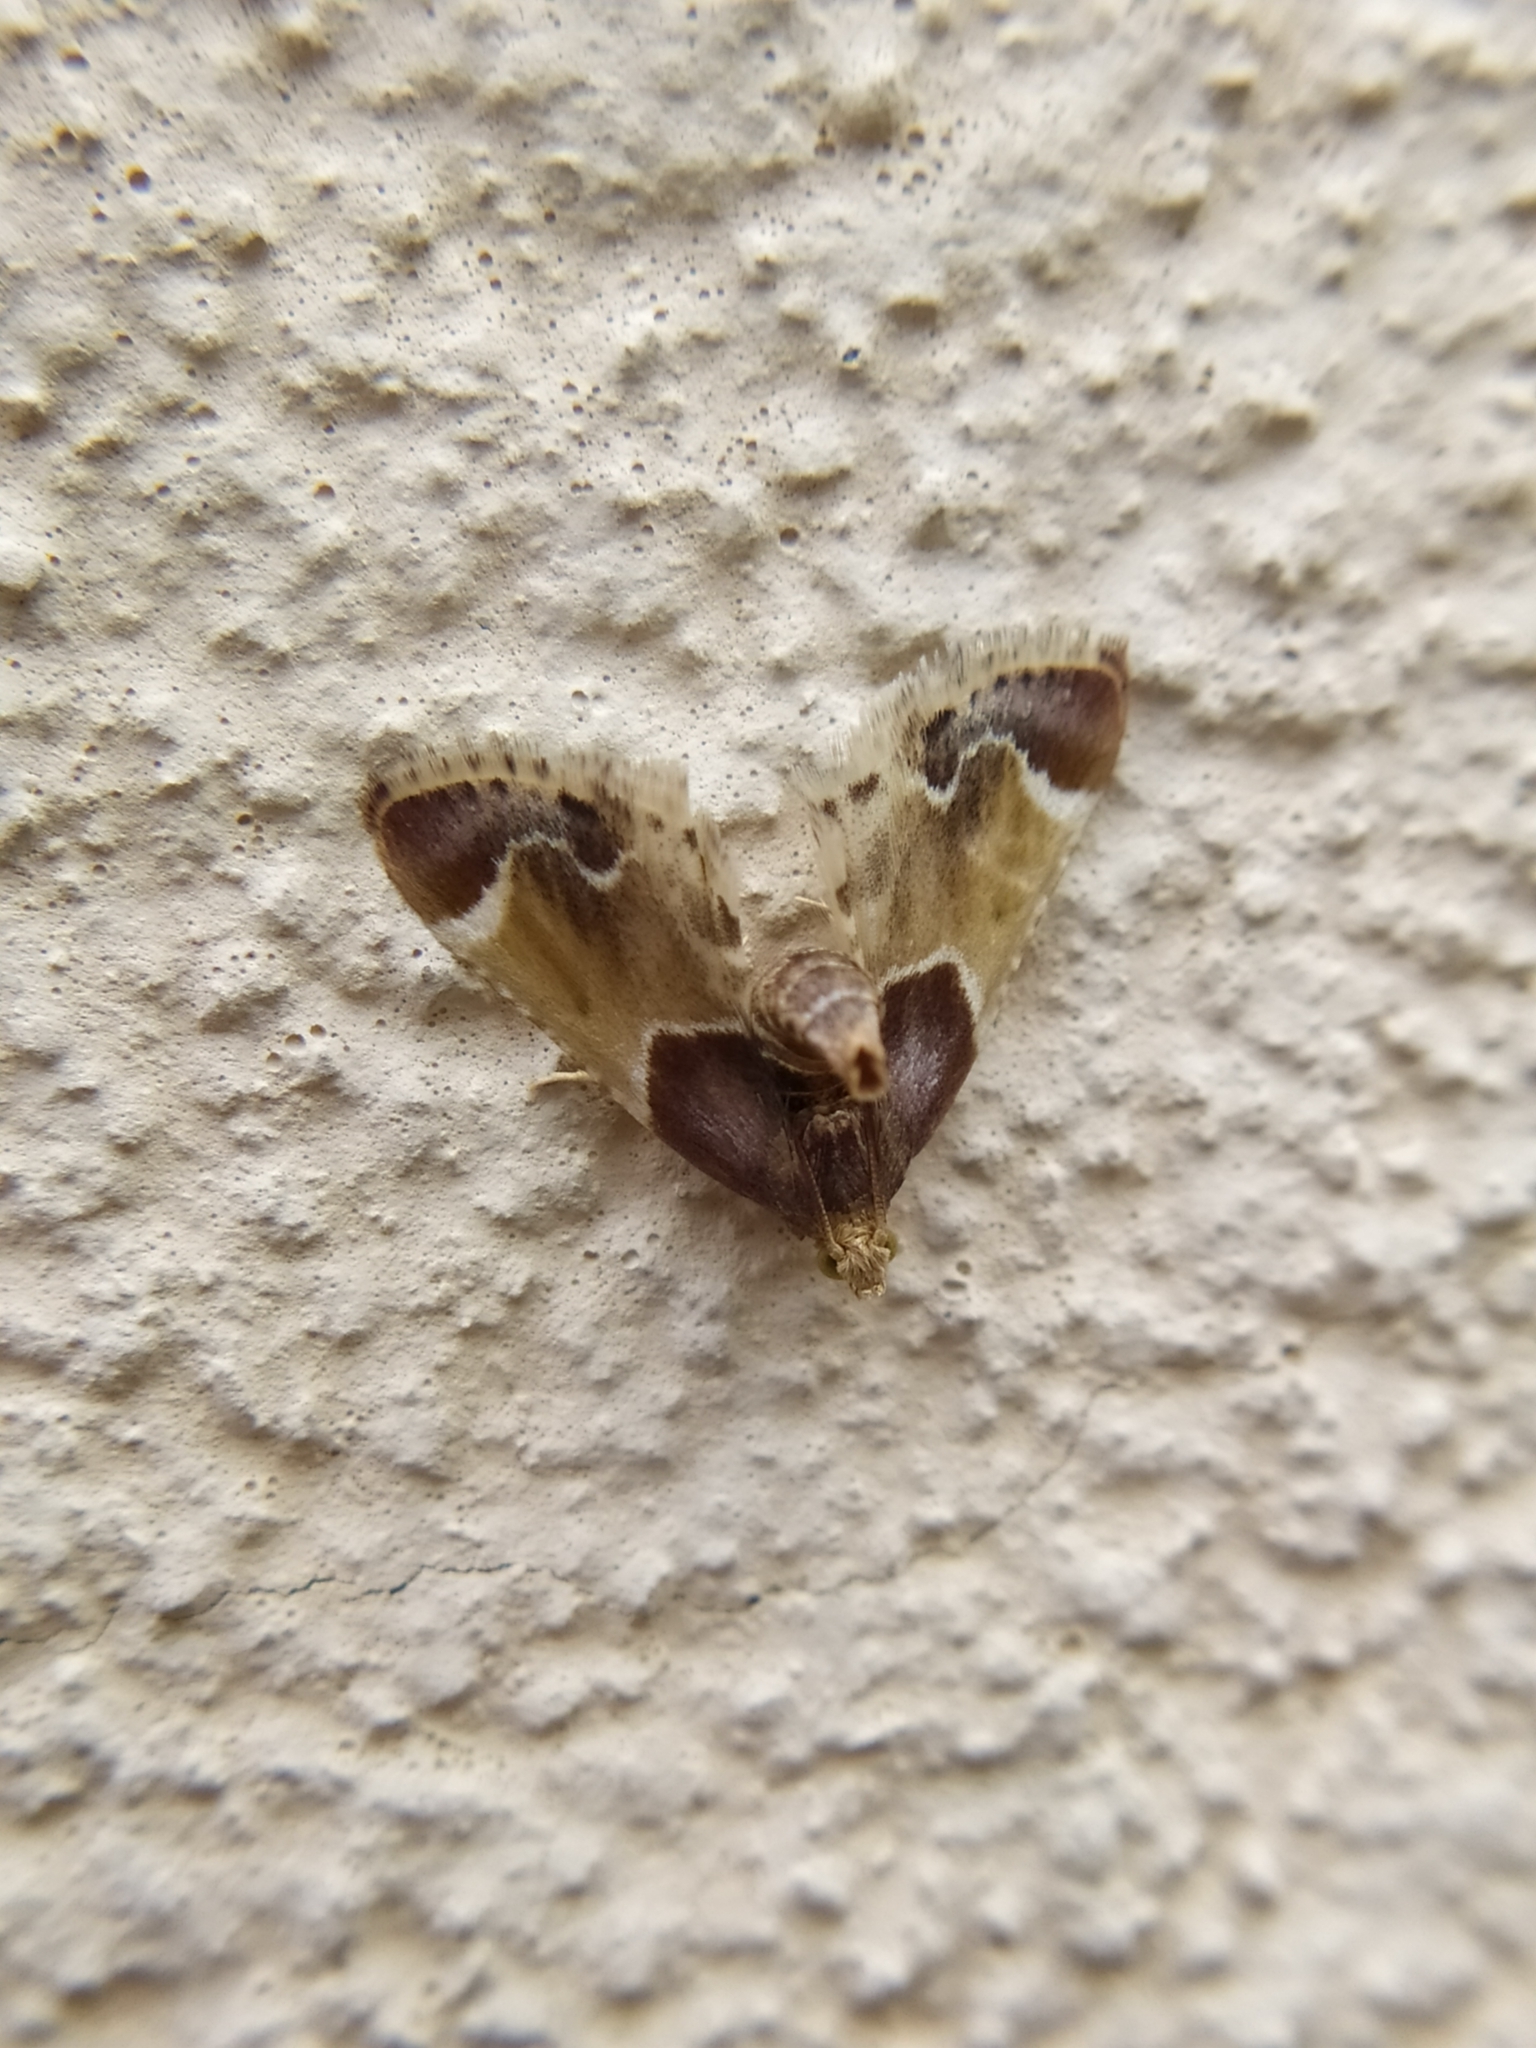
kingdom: Animalia
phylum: Arthropoda
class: Insecta
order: Lepidoptera
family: Pyralidae
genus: Pyralis
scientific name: Pyralis farinalis
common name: Meal moth
